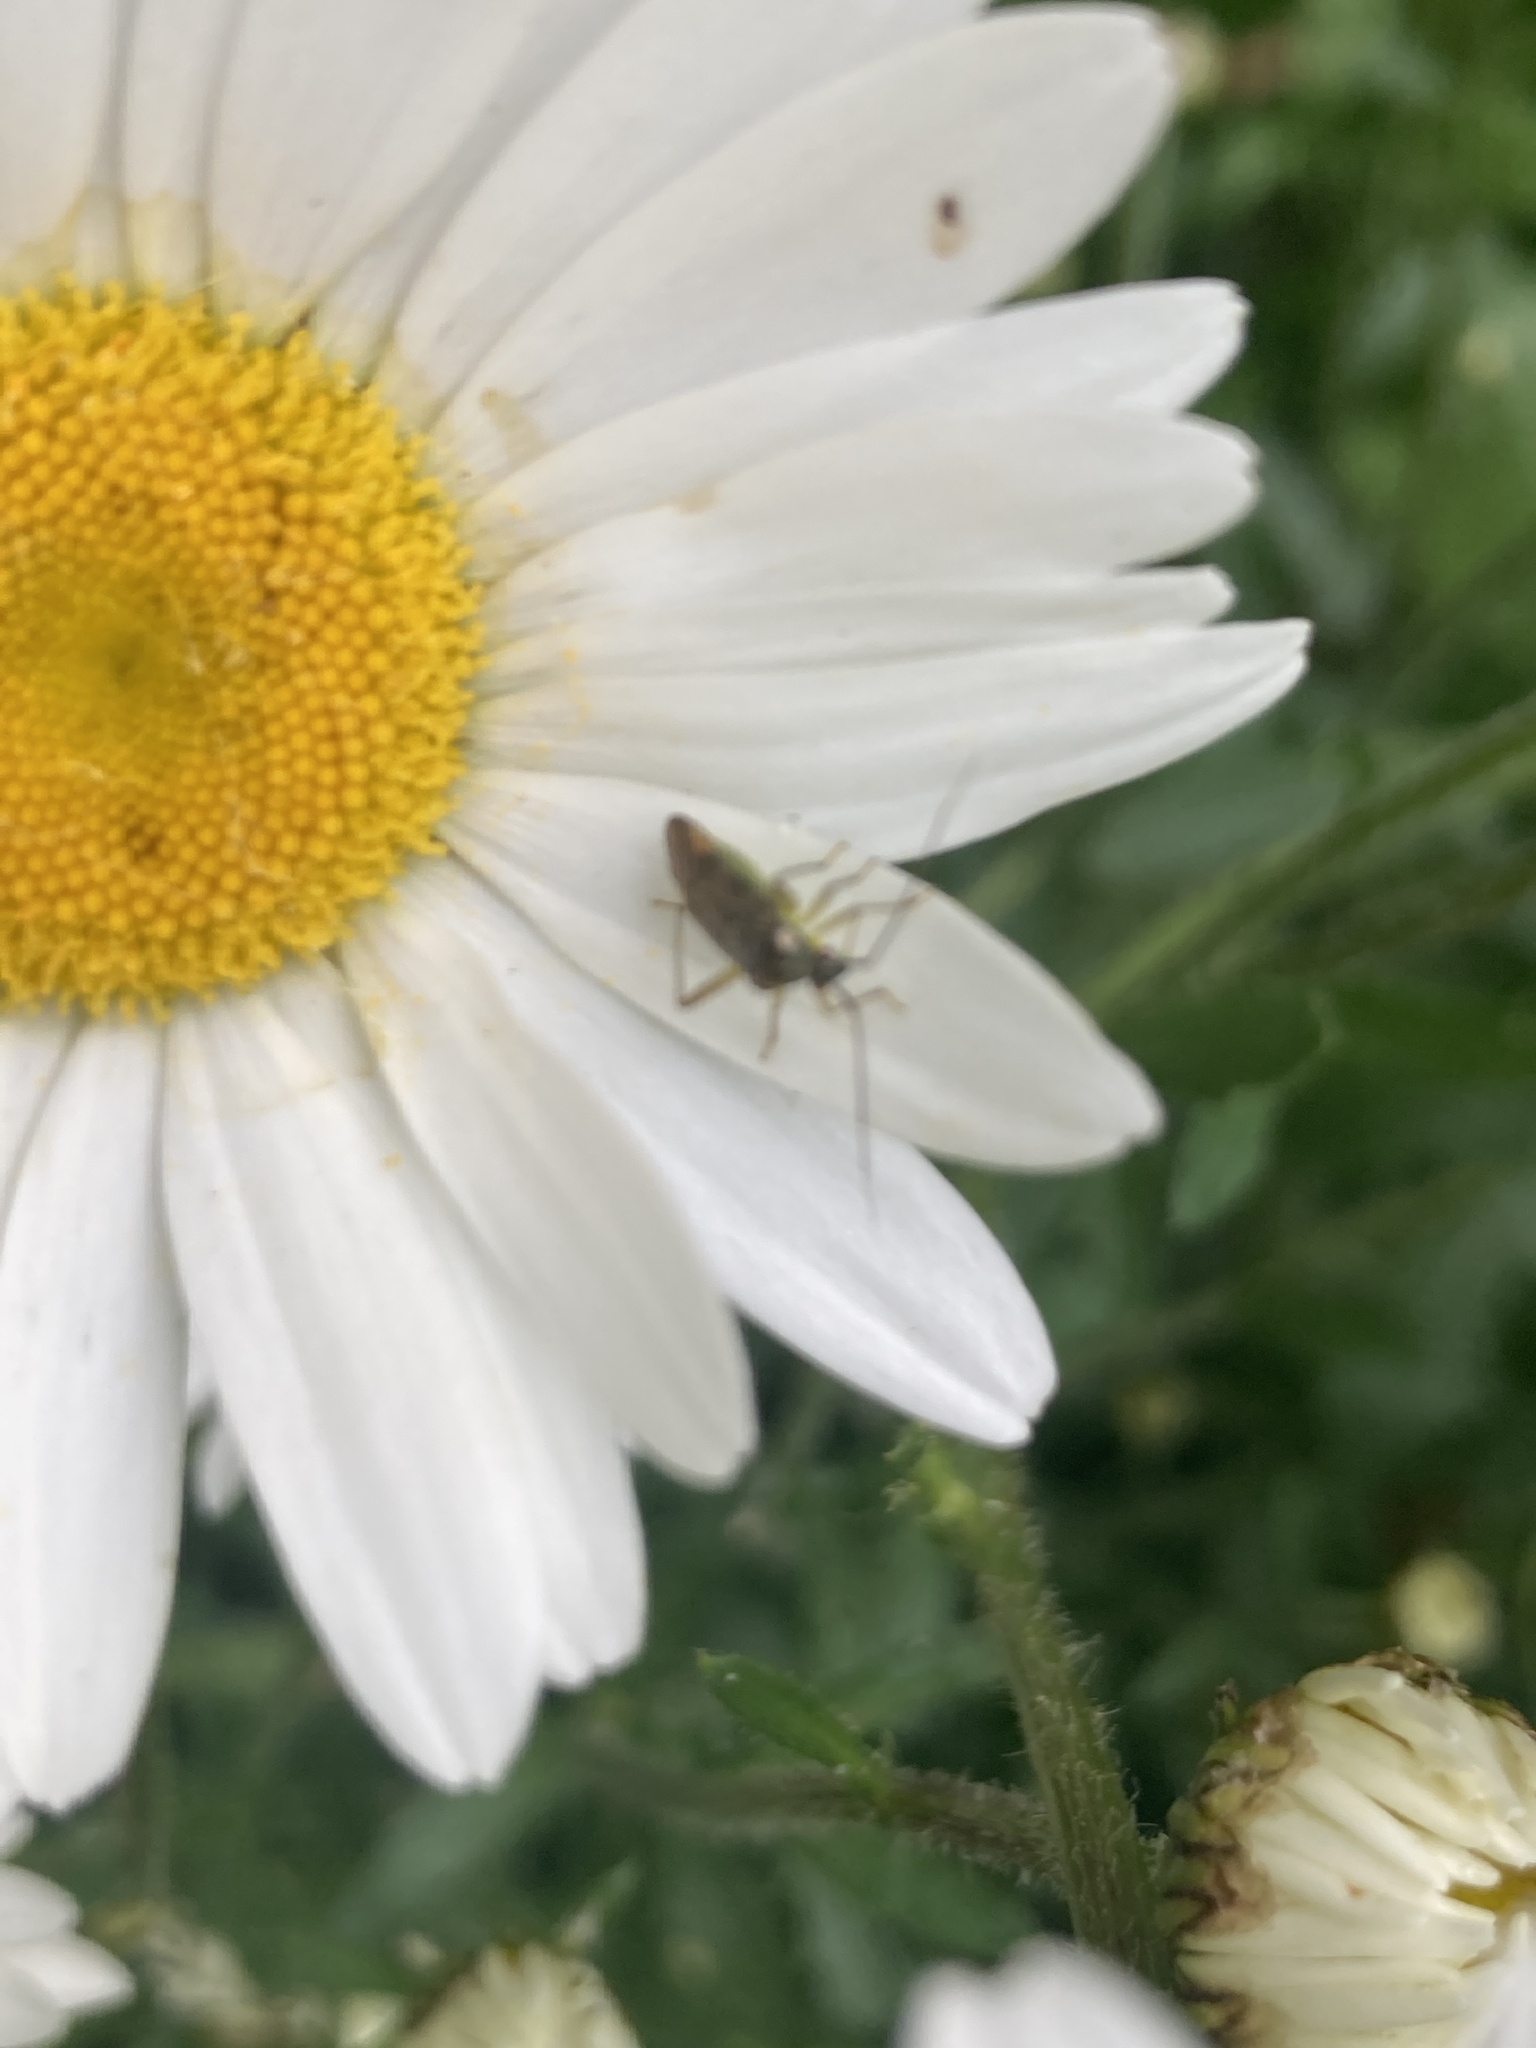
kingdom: Animalia
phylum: Arthropoda
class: Insecta
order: Hemiptera
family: Miridae
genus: Closterotomus
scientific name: Closterotomus trivialis
